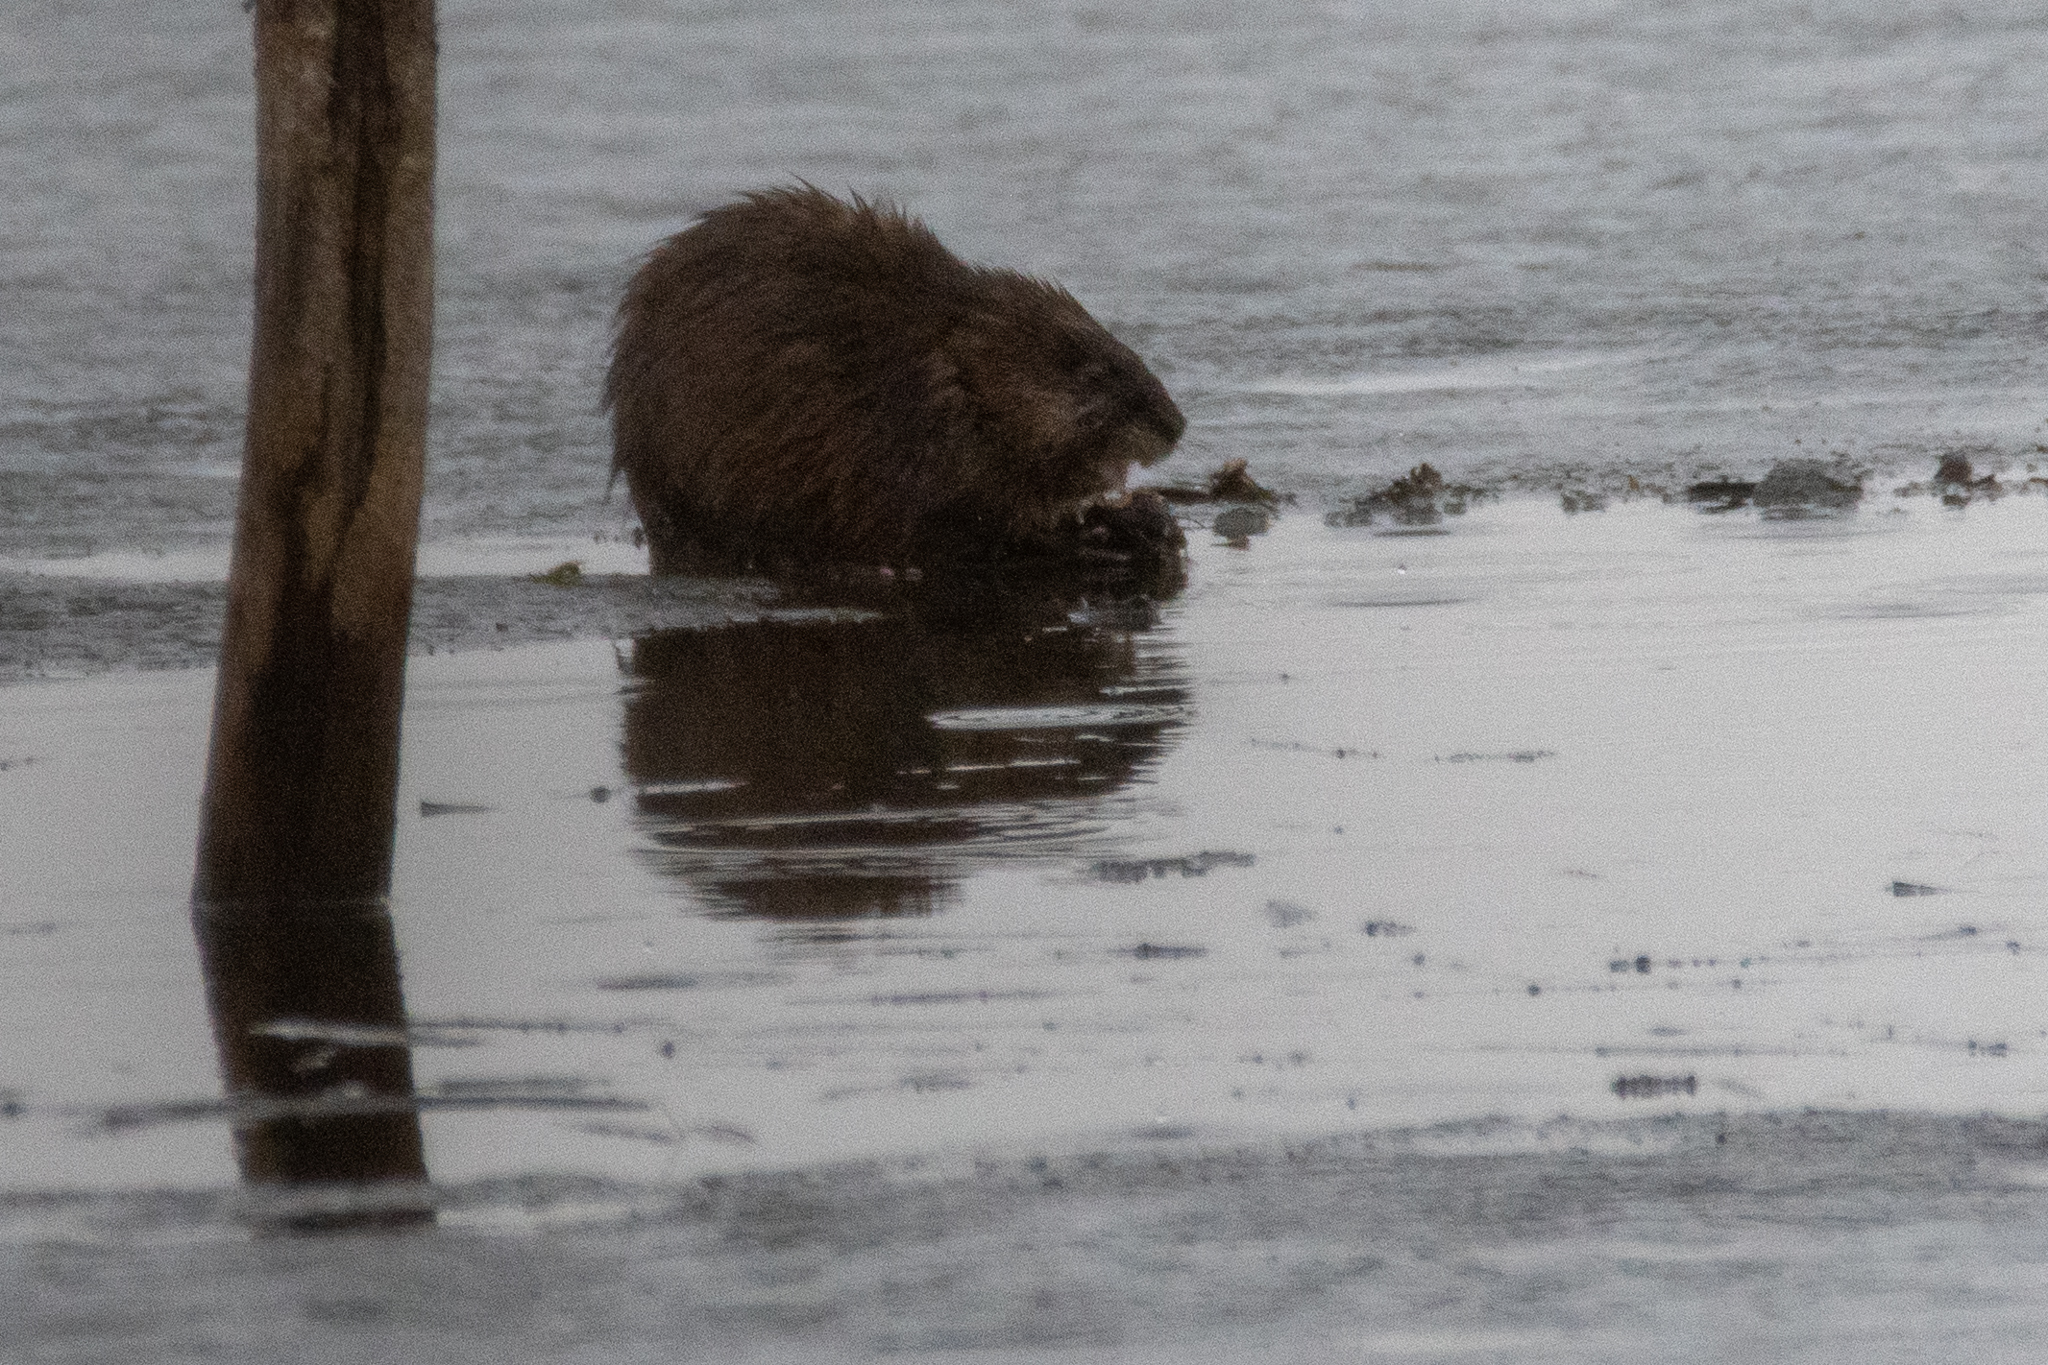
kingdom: Animalia
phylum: Chordata
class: Mammalia
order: Rodentia
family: Cricetidae
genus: Ondatra
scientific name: Ondatra zibethicus
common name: Muskrat
